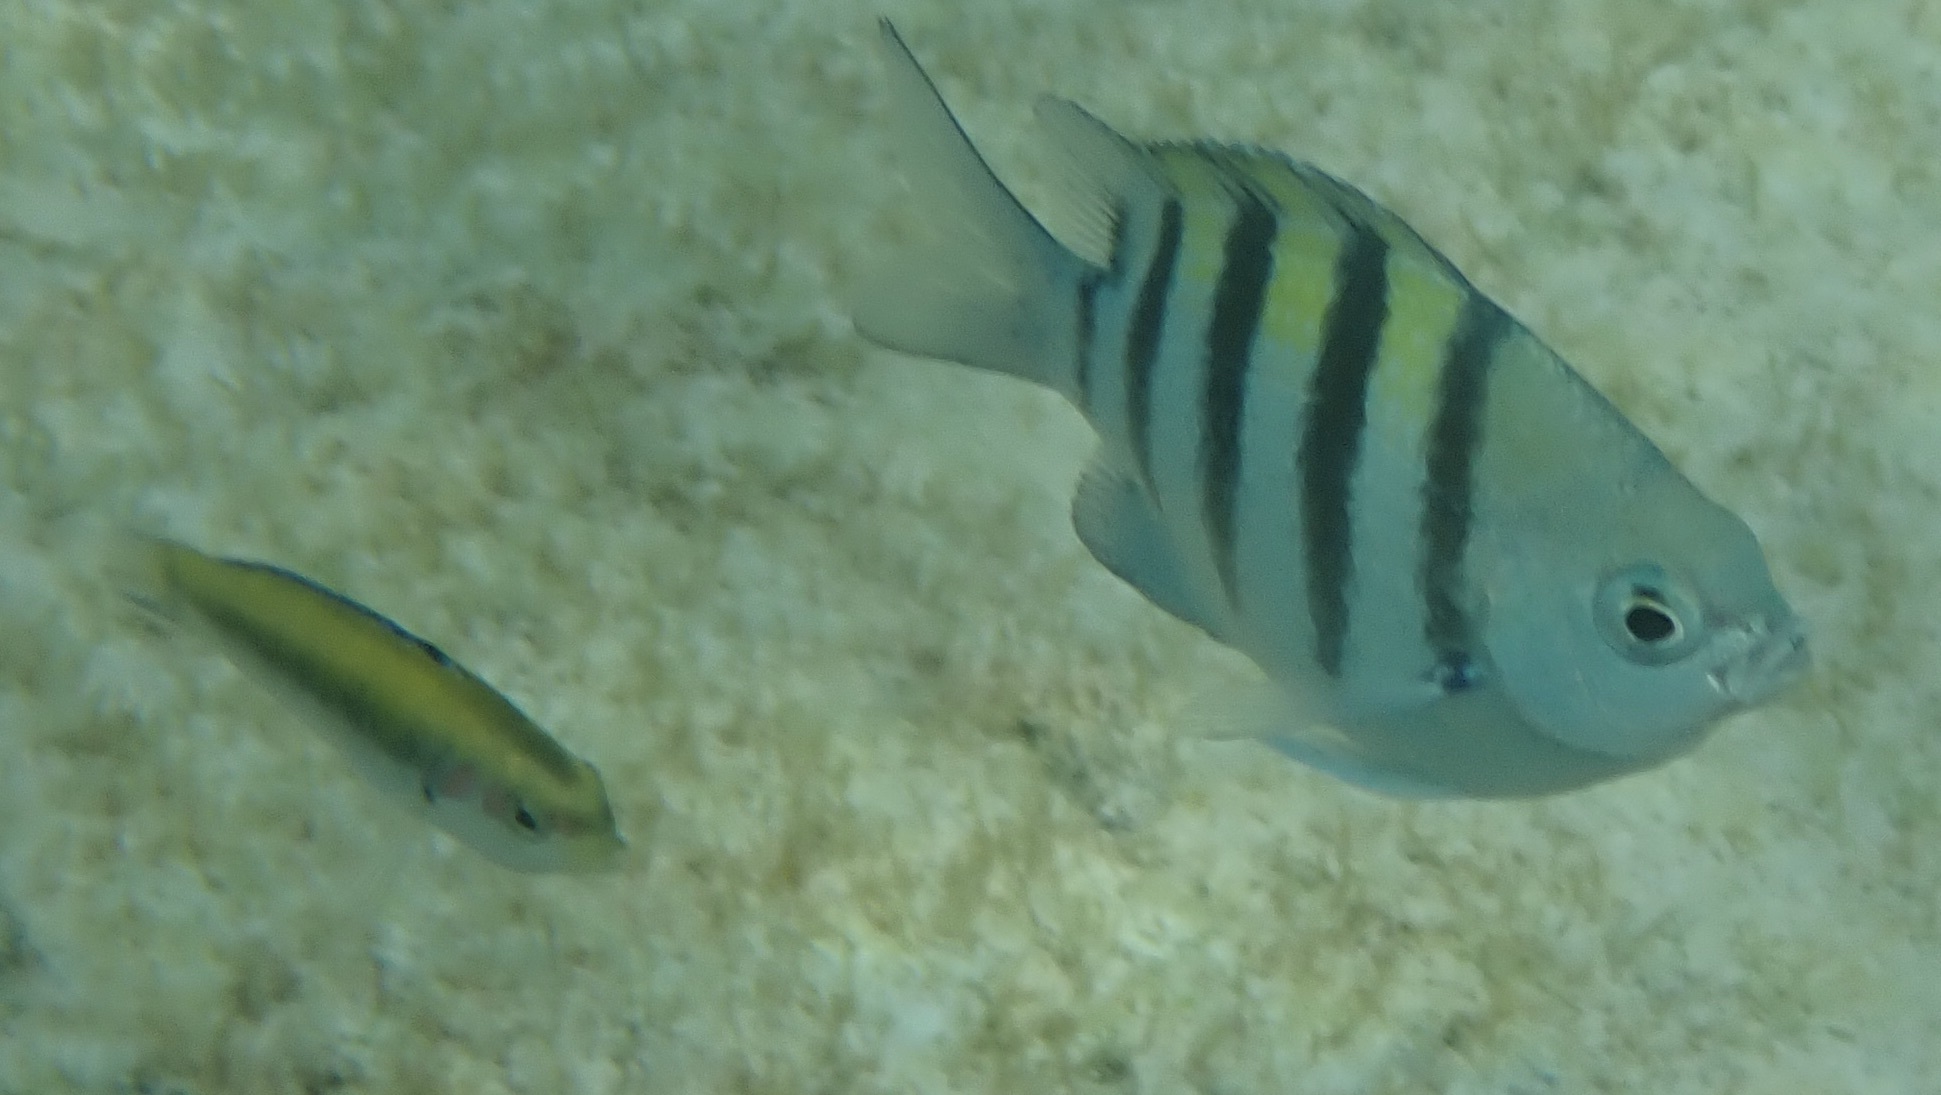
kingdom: Animalia
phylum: Chordata
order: Perciformes
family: Pomacentridae
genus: Abudefduf
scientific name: Abudefduf saxatilis
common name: Sergeant major
